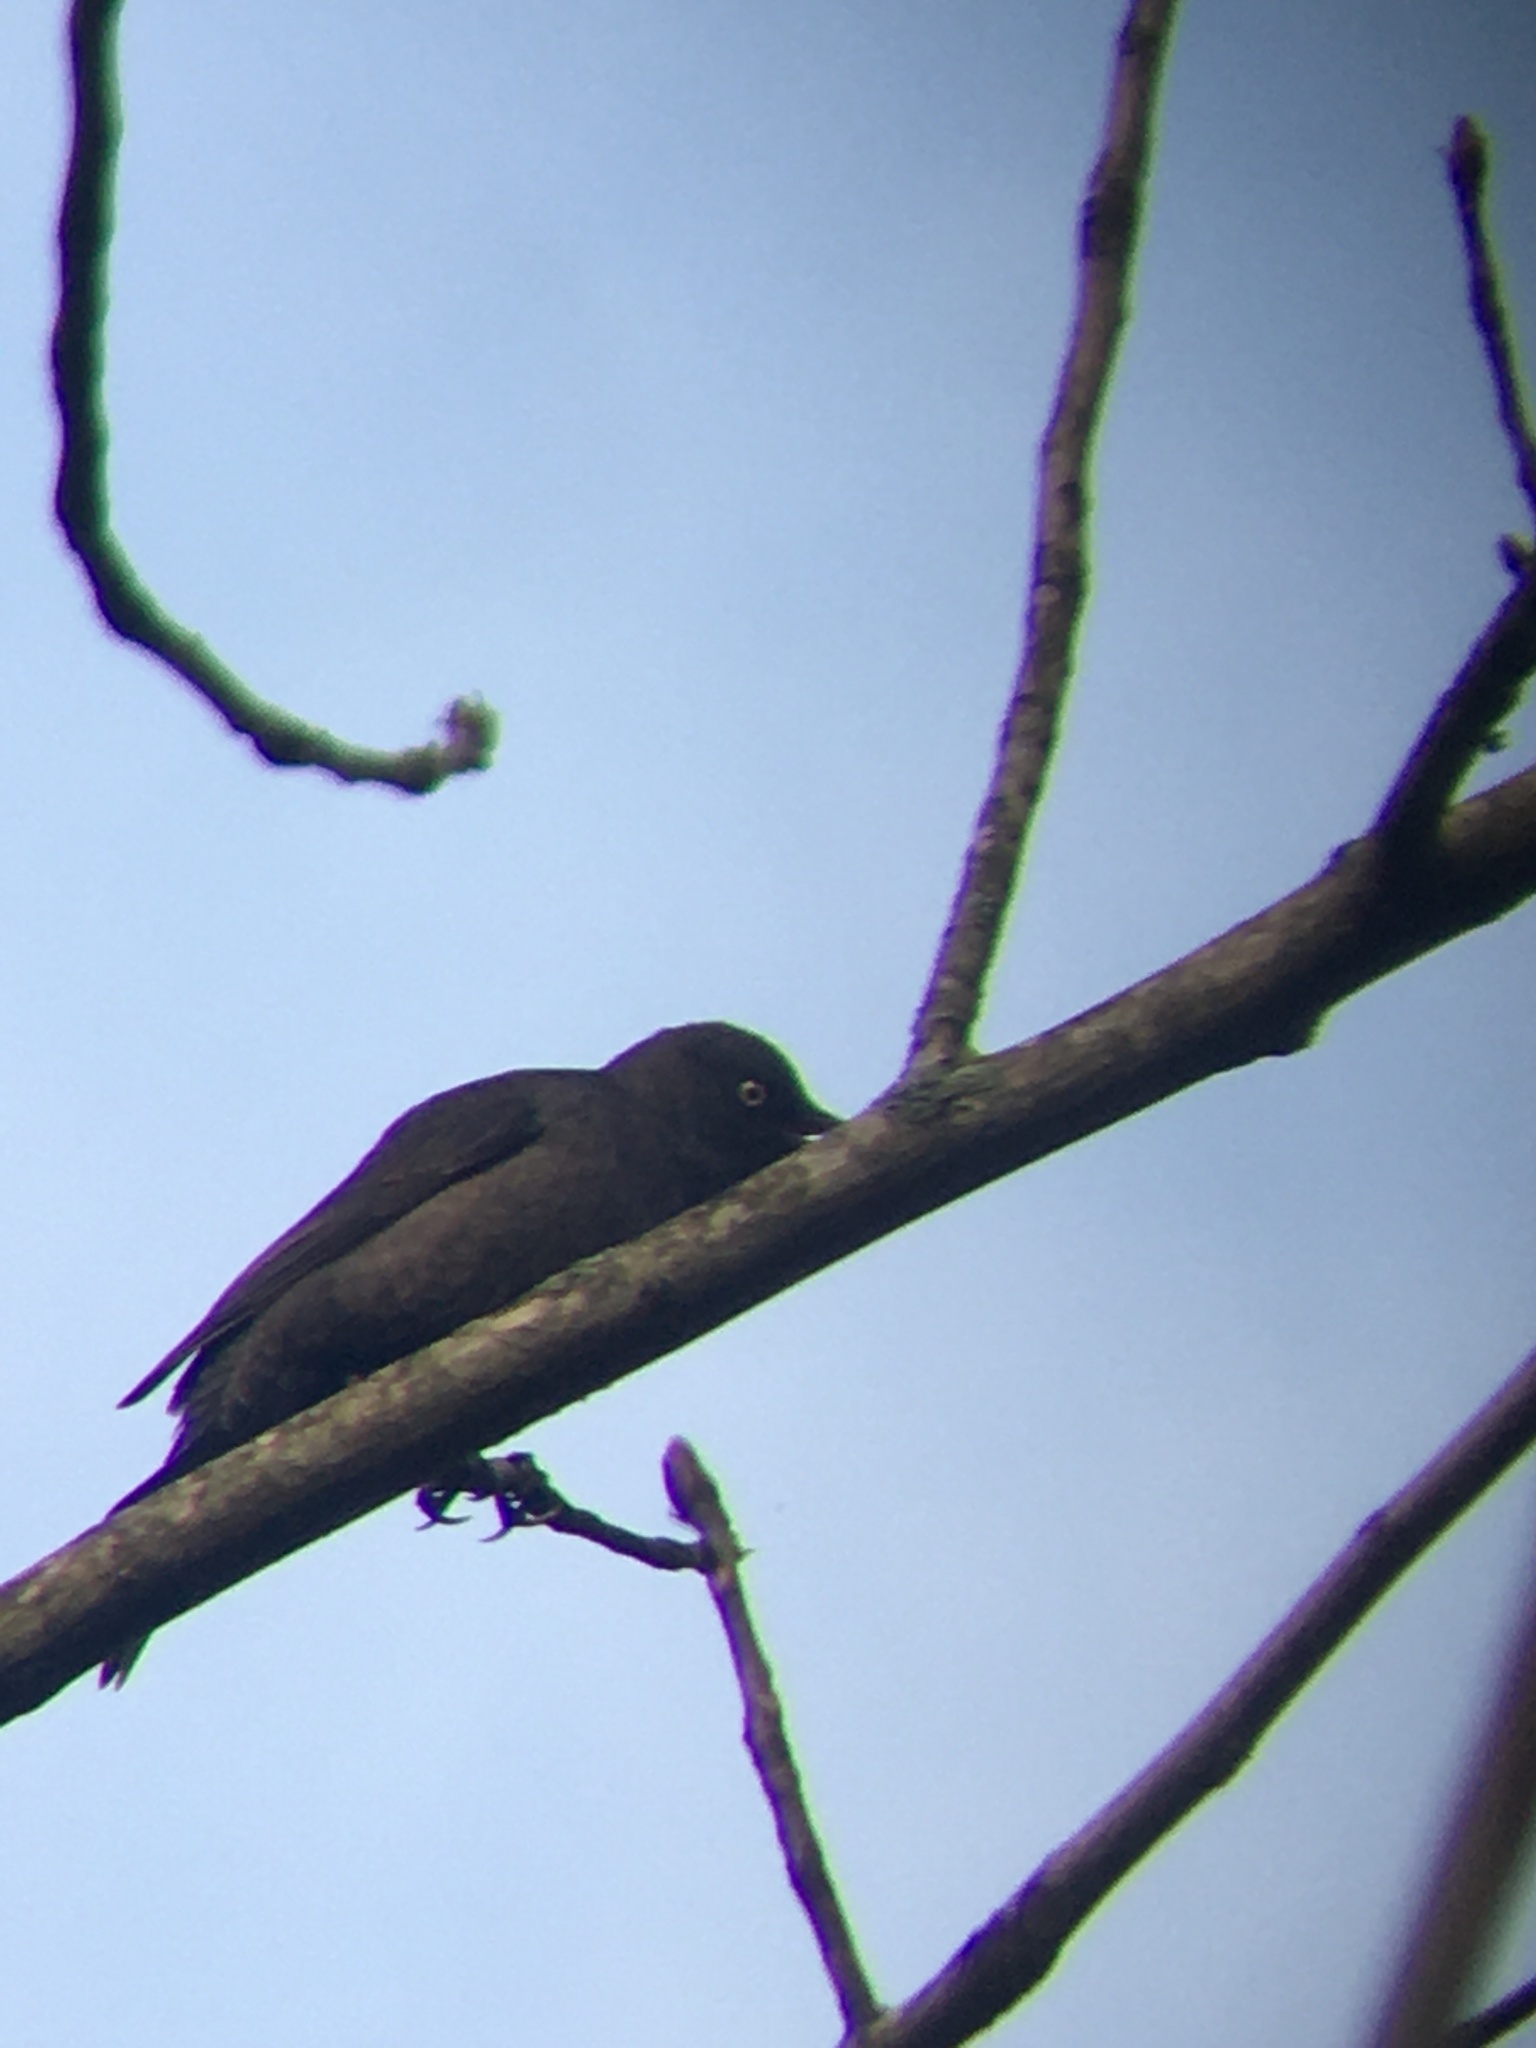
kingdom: Animalia
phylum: Chordata
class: Aves
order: Passeriformes
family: Icteridae
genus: Euphagus
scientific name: Euphagus carolinus
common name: Rusty blackbird
